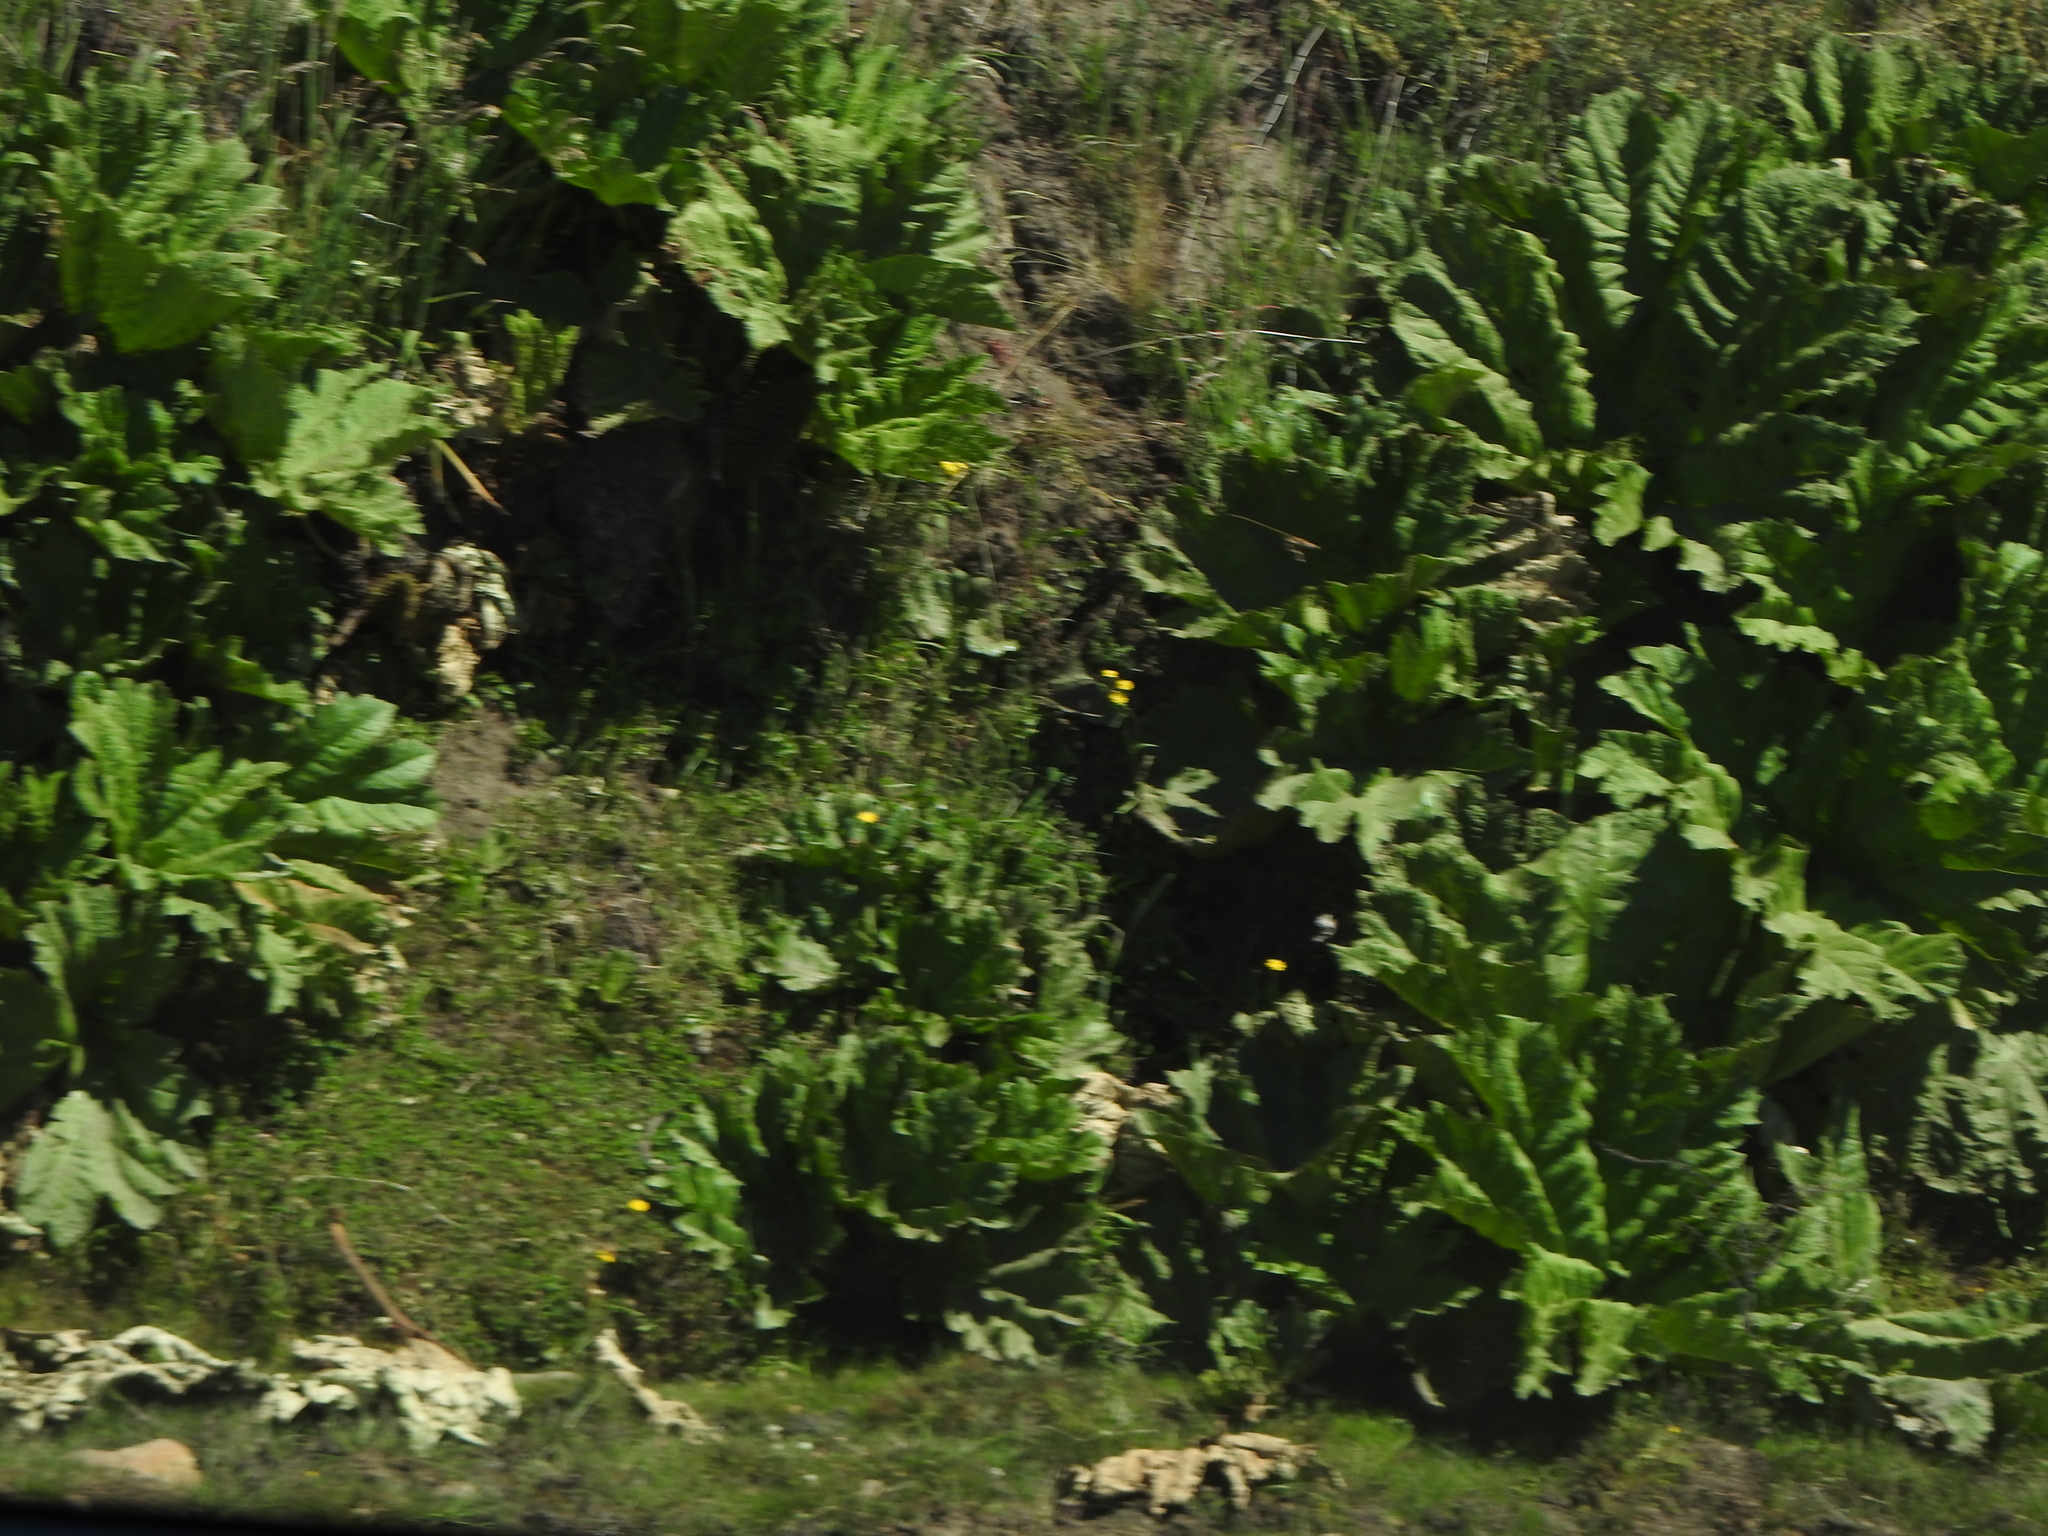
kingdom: Plantae
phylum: Tracheophyta
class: Magnoliopsida
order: Gunnerales
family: Gunneraceae
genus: Gunnera
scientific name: Gunnera tinctoria
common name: Giant-rhubarb
